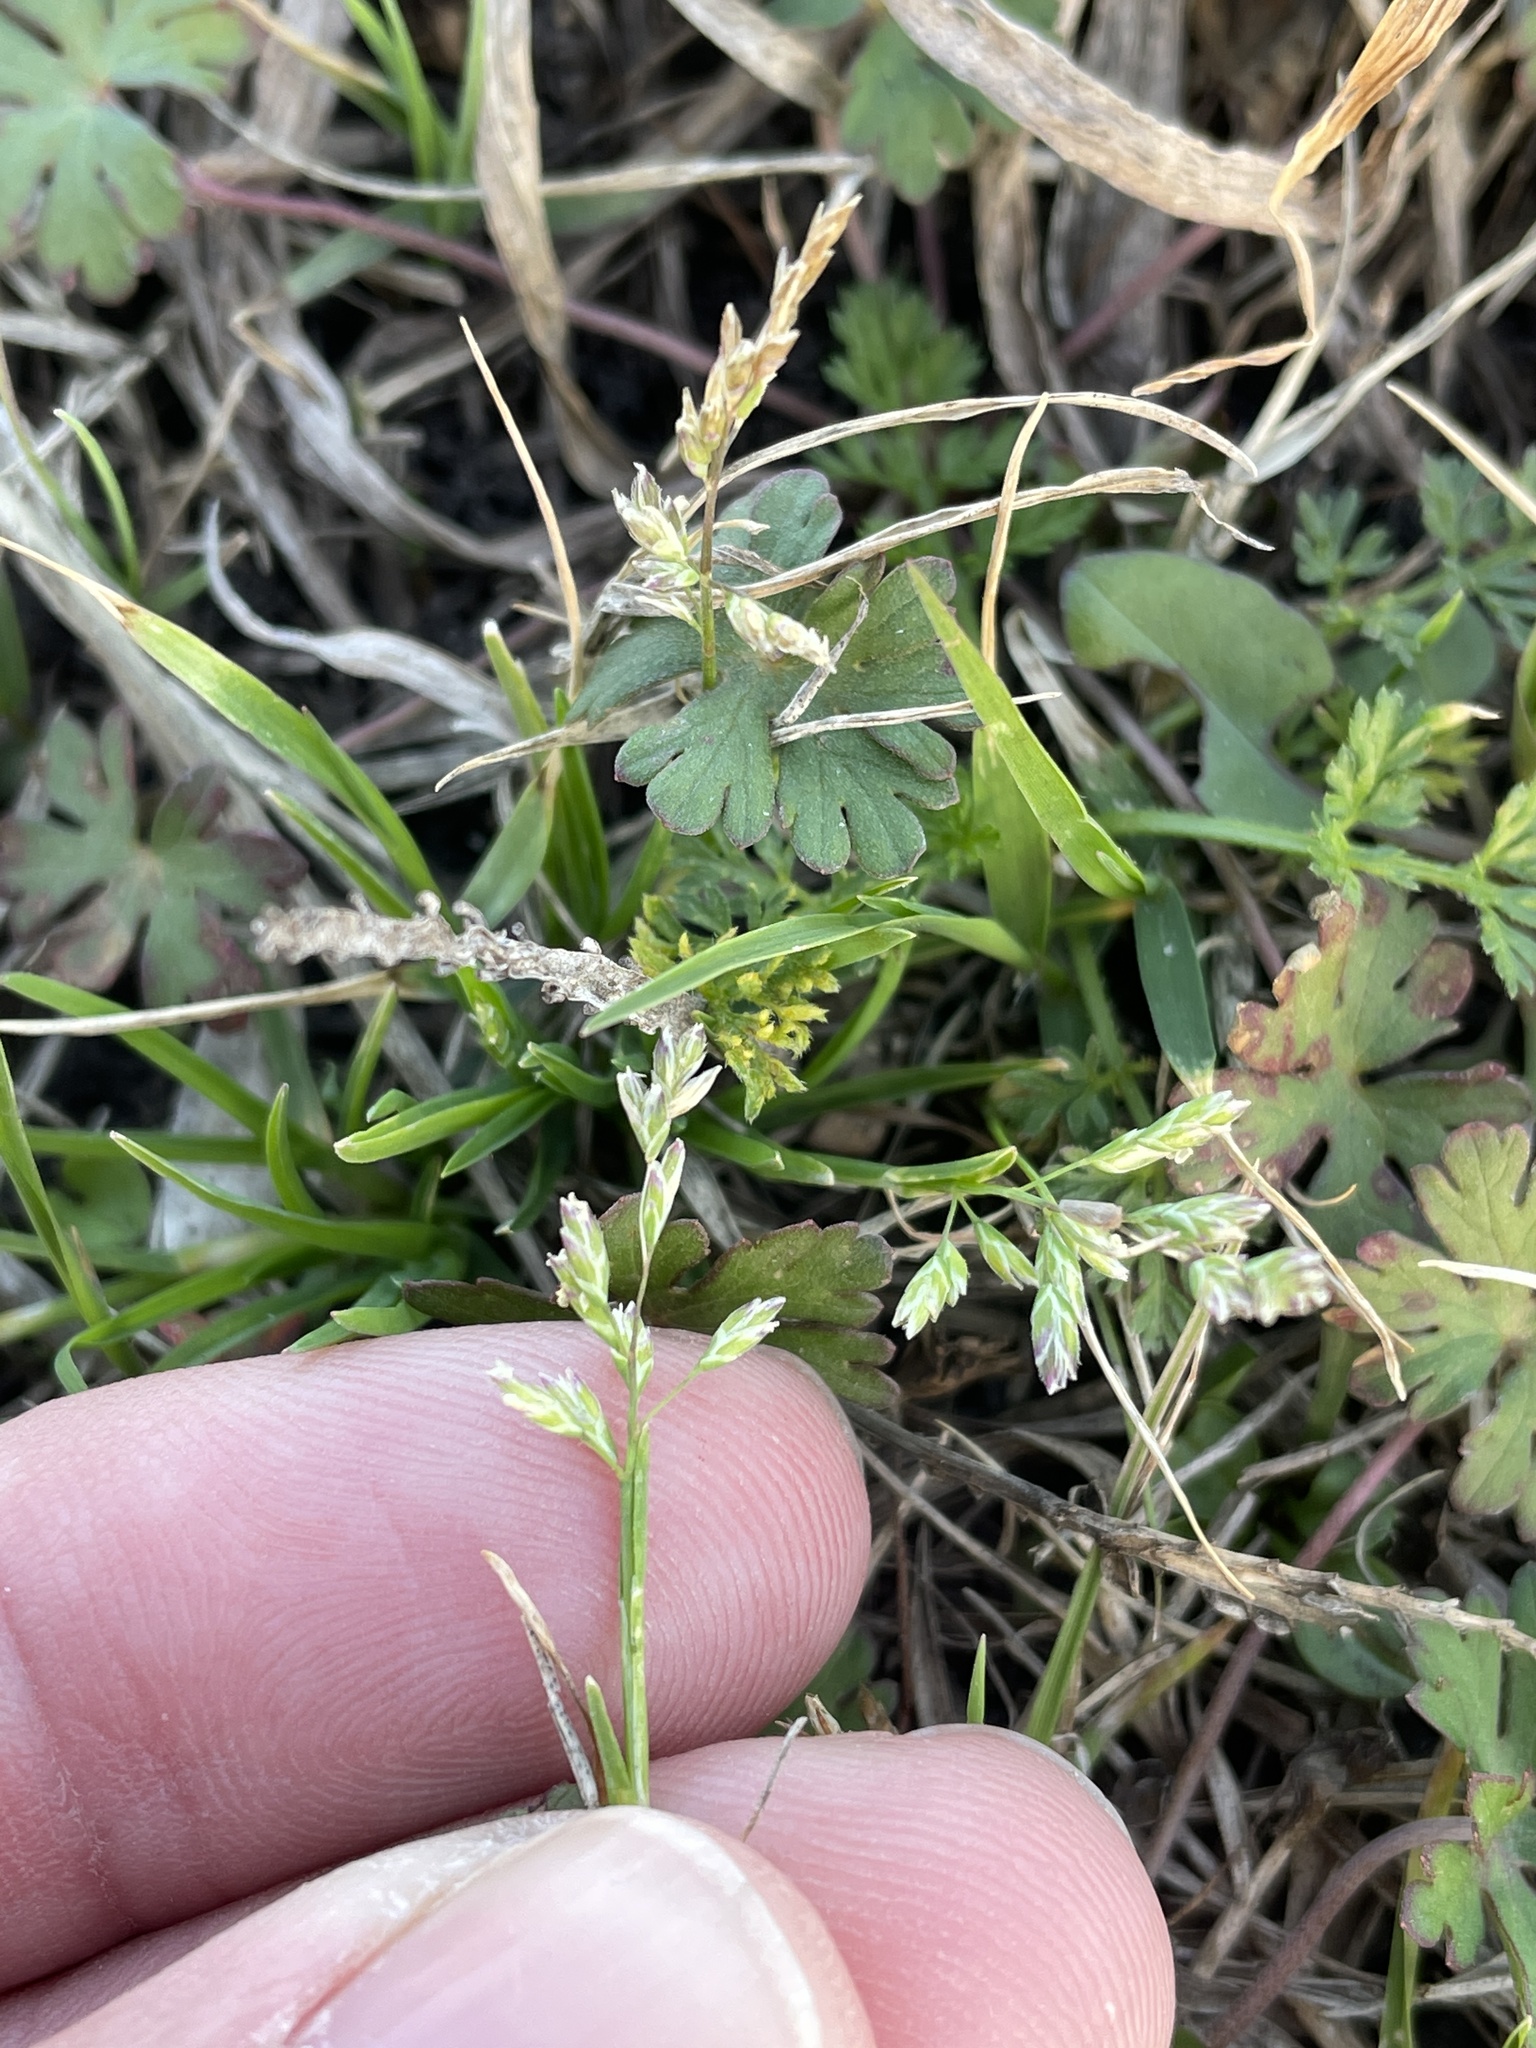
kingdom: Plantae
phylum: Tracheophyta
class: Liliopsida
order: Poales
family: Poaceae
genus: Poa
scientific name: Poa annua
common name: Annual bluegrass
